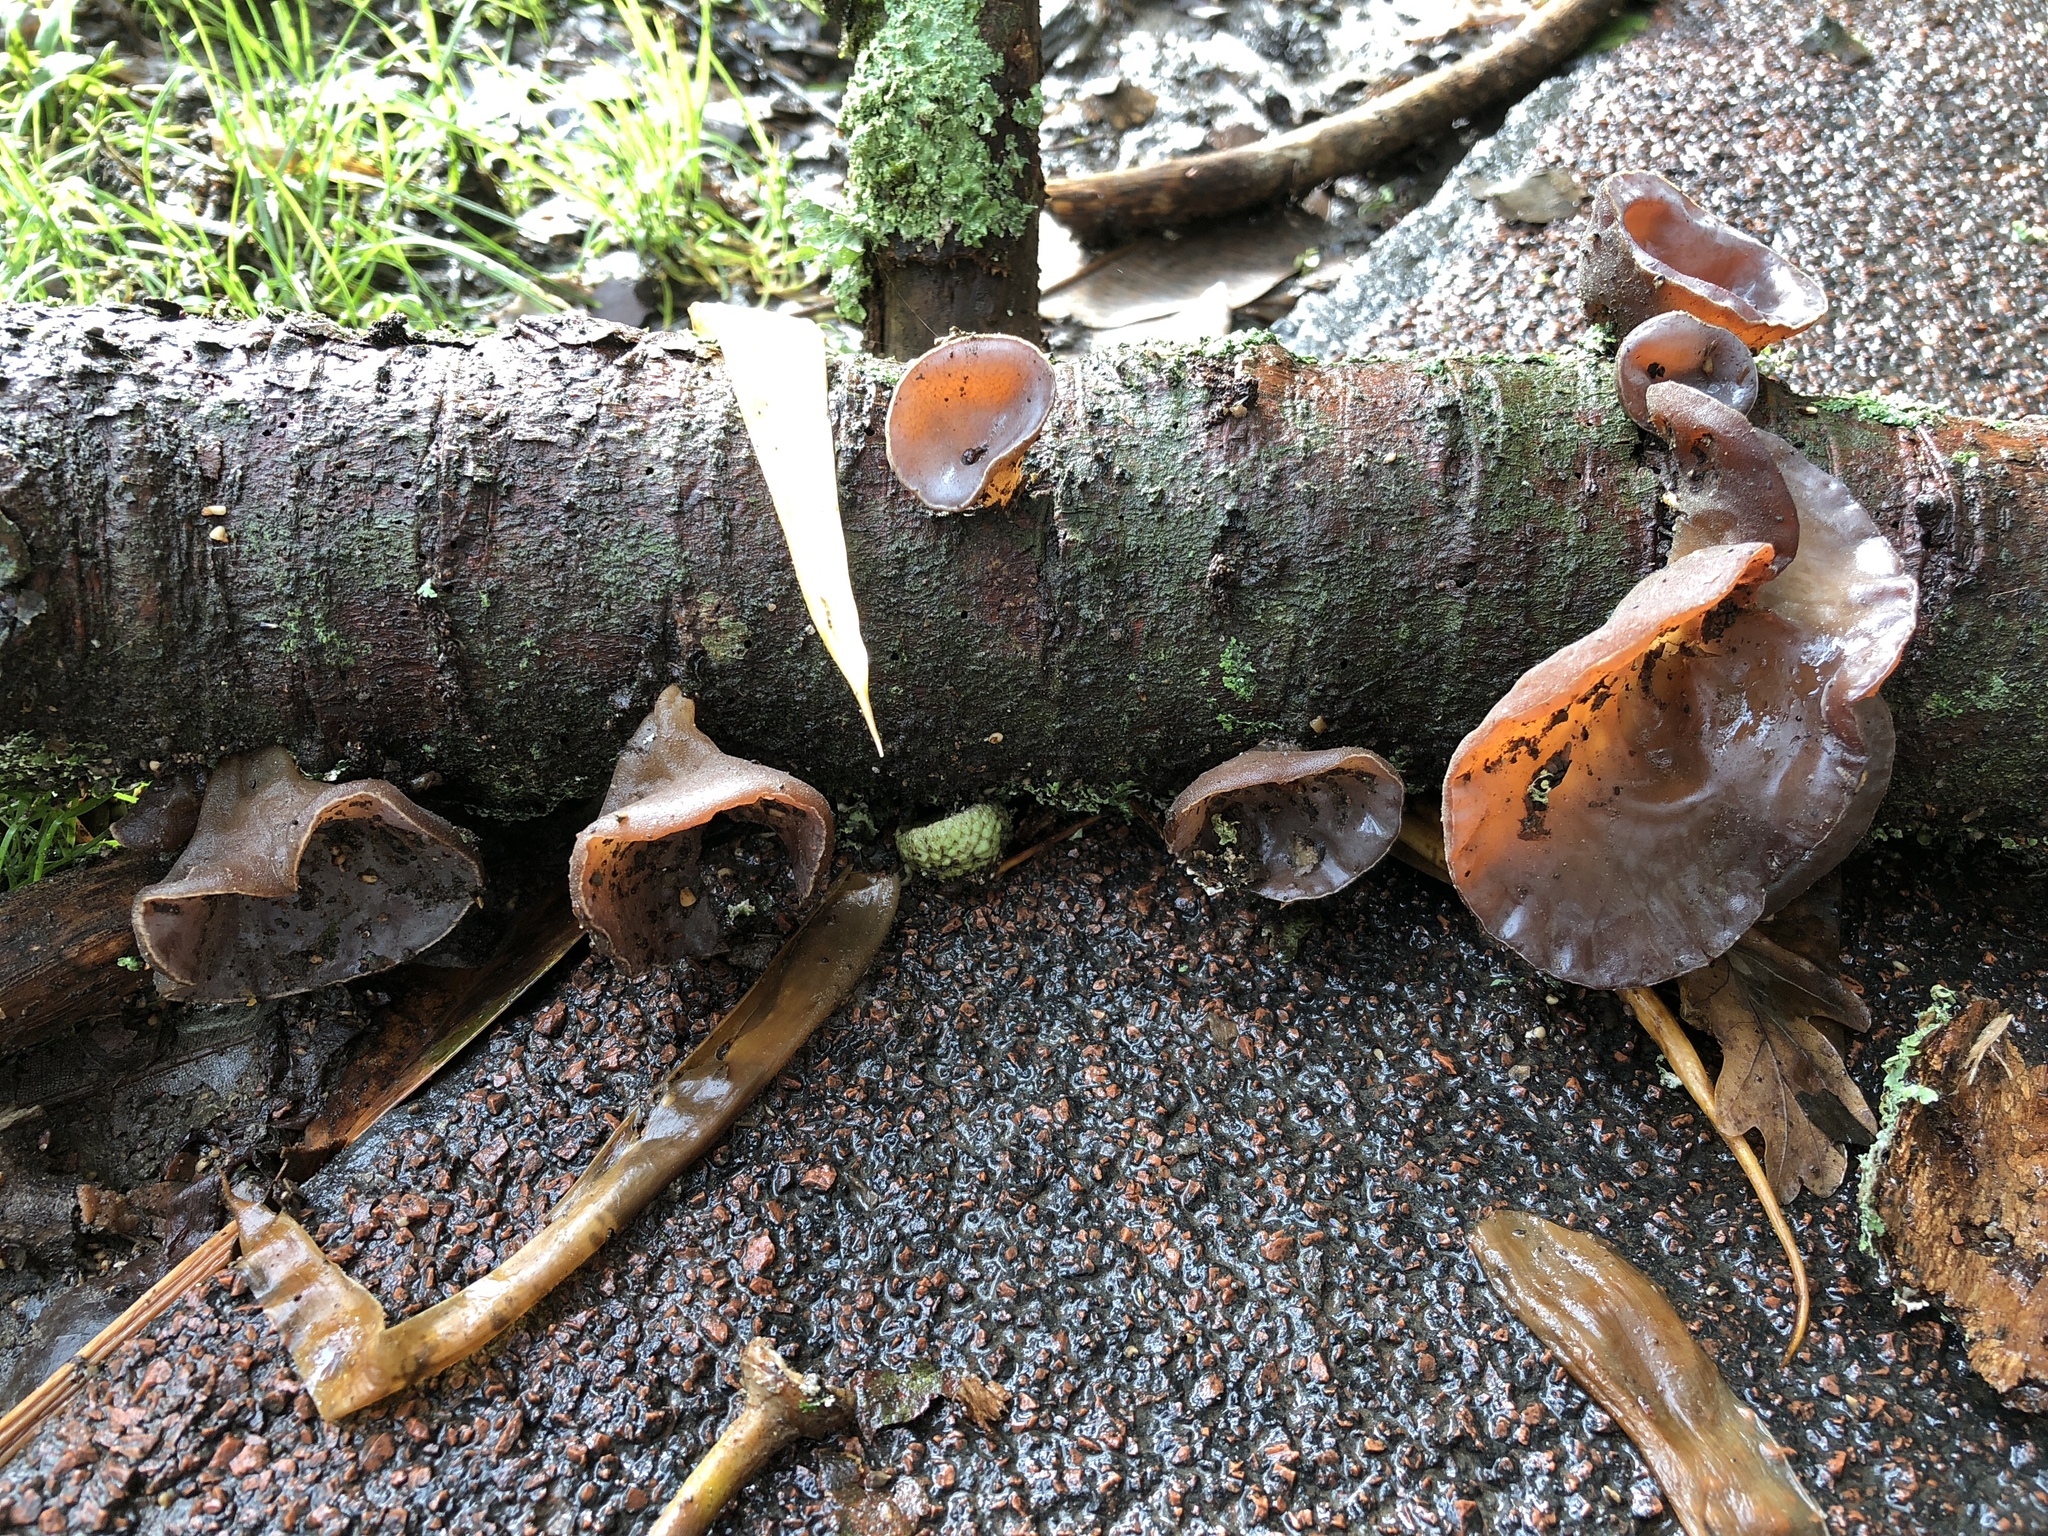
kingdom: Fungi
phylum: Basidiomycota
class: Agaricomycetes
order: Auriculariales
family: Auriculariaceae
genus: Auricularia
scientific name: Auricularia cornea
